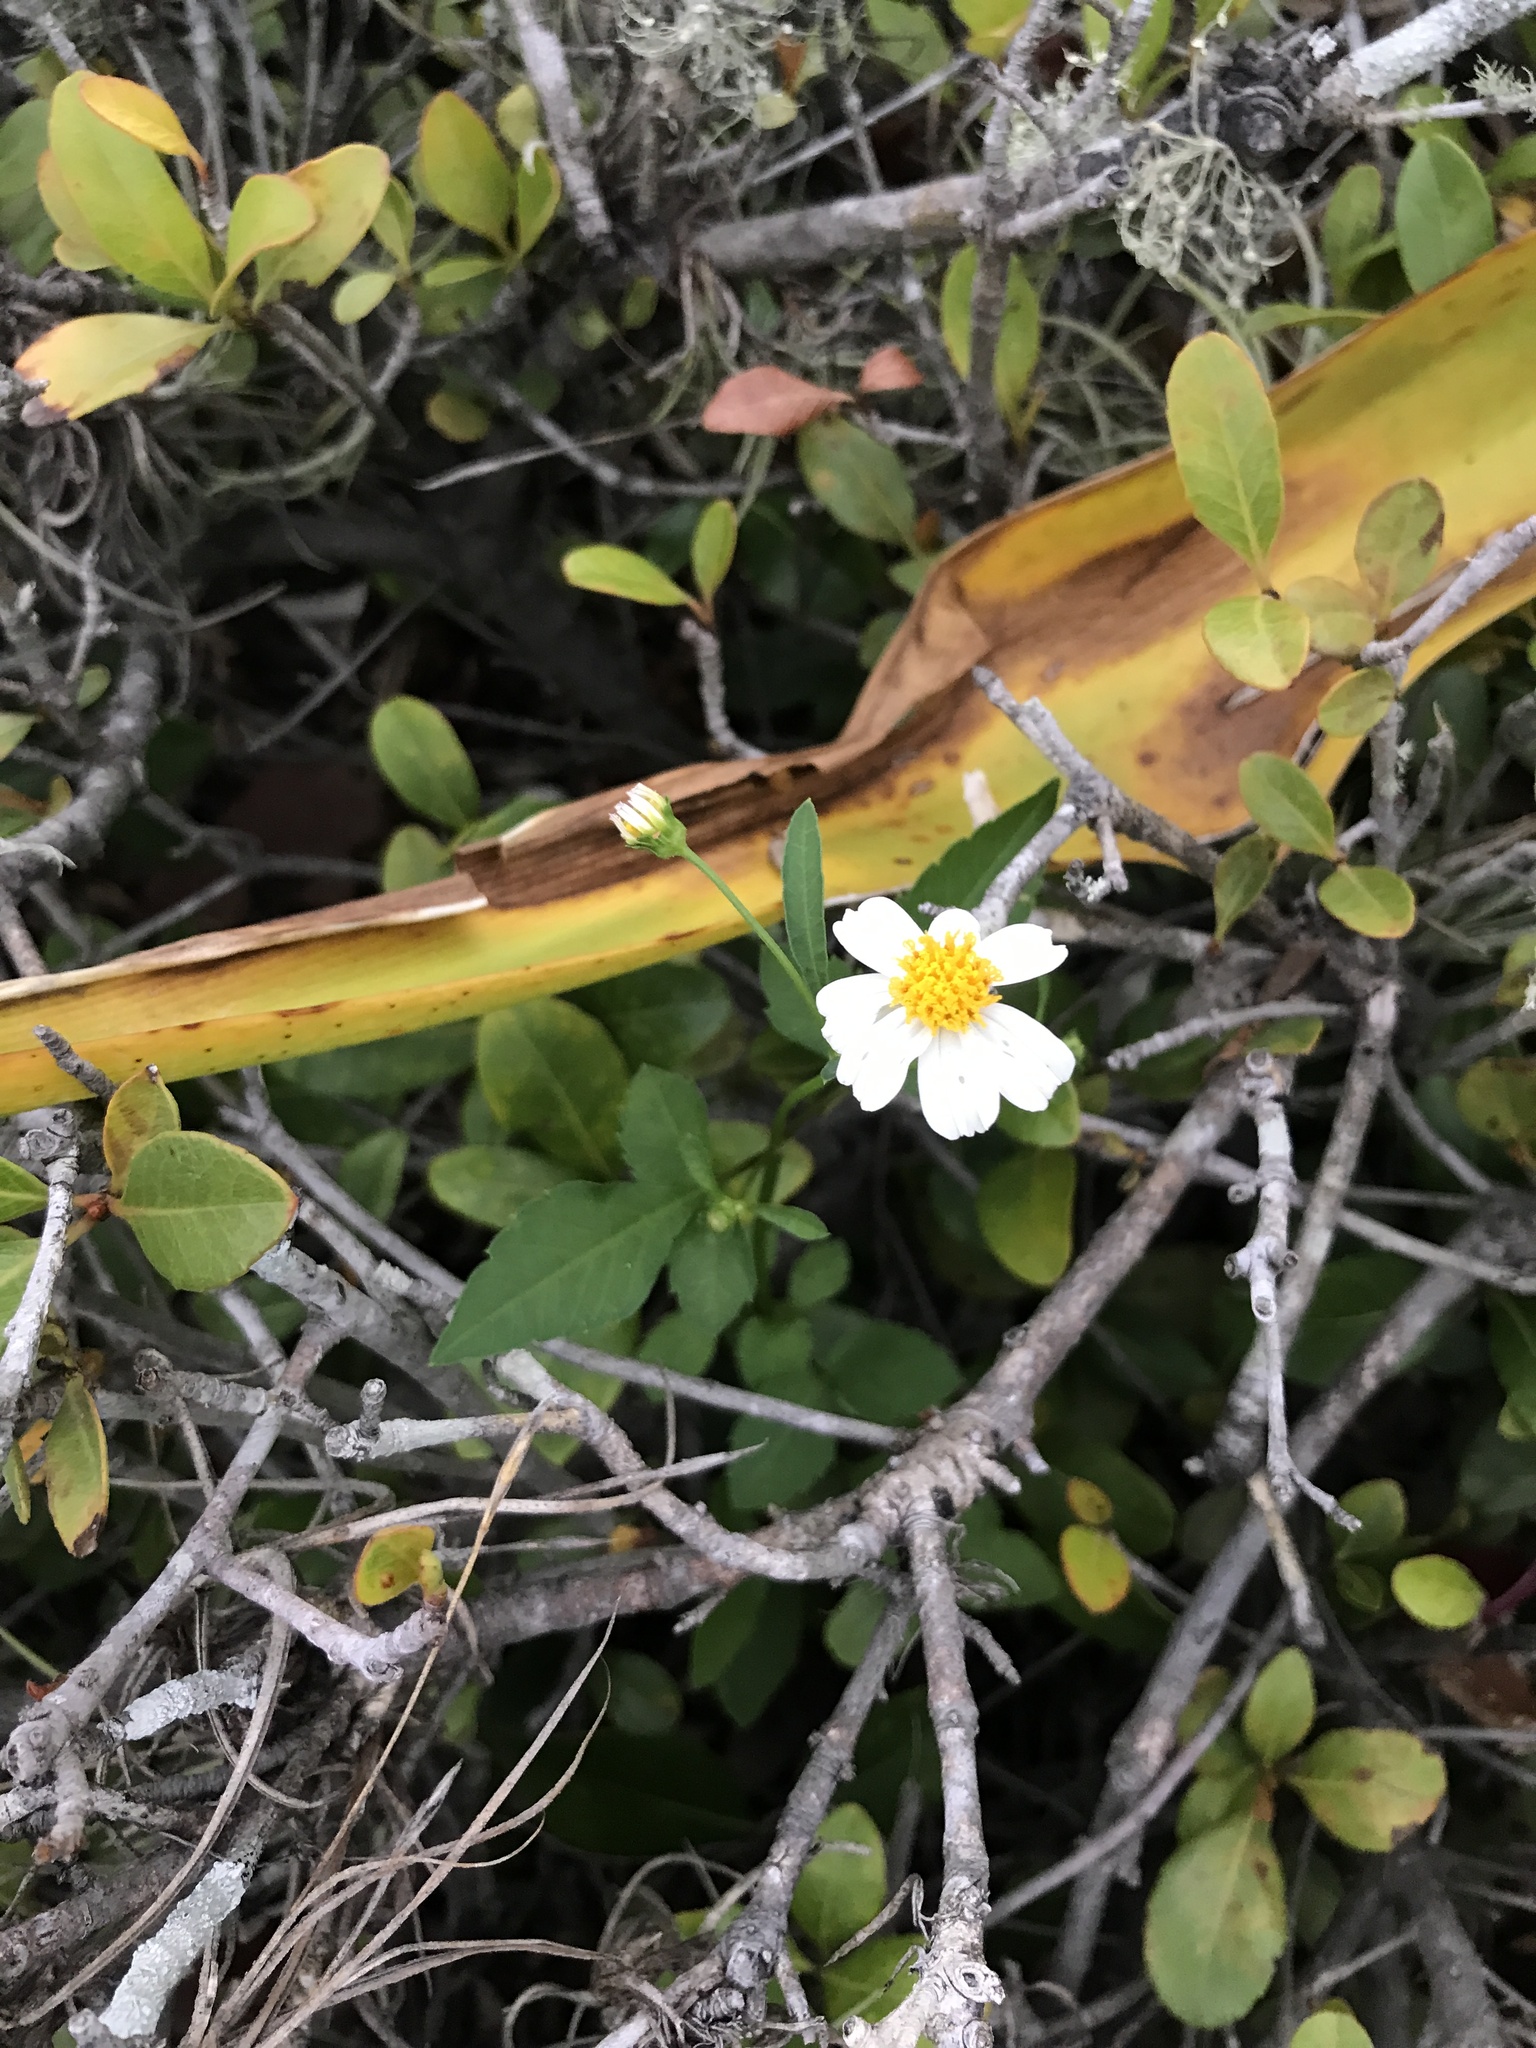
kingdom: Plantae
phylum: Tracheophyta
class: Magnoliopsida
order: Asterales
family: Asteraceae
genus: Bidens
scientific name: Bidens alba
